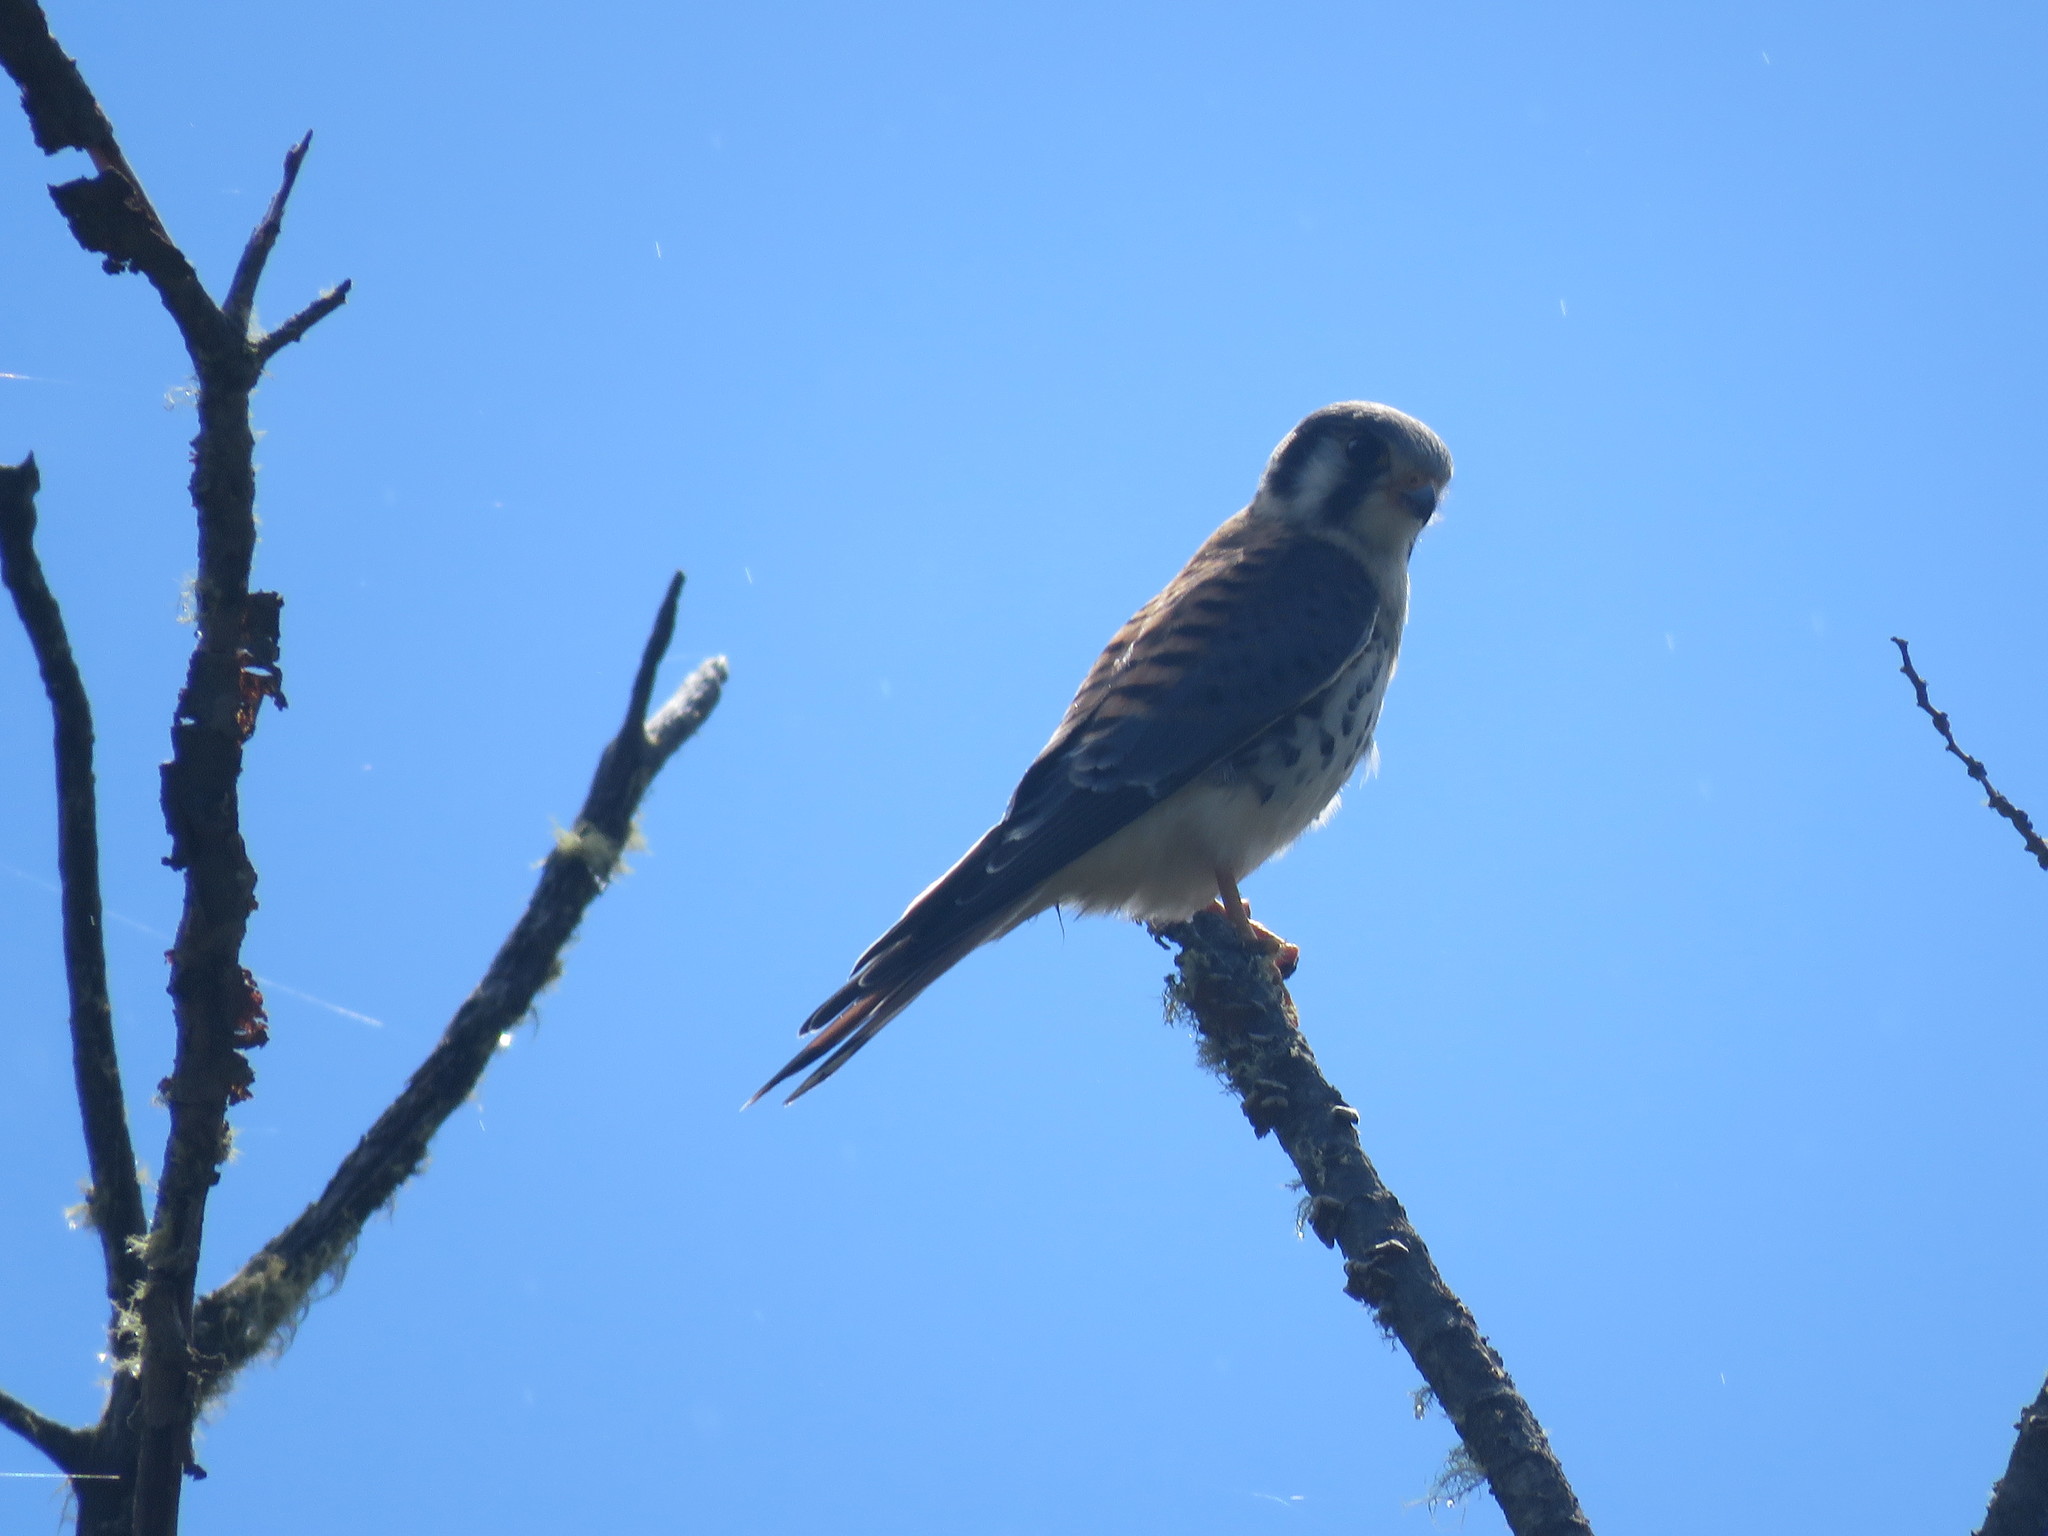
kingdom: Animalia
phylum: Chordata
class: Aves
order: Falconiformes
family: Falconidae
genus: Falco
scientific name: Falco sparverius
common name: American kestrel
